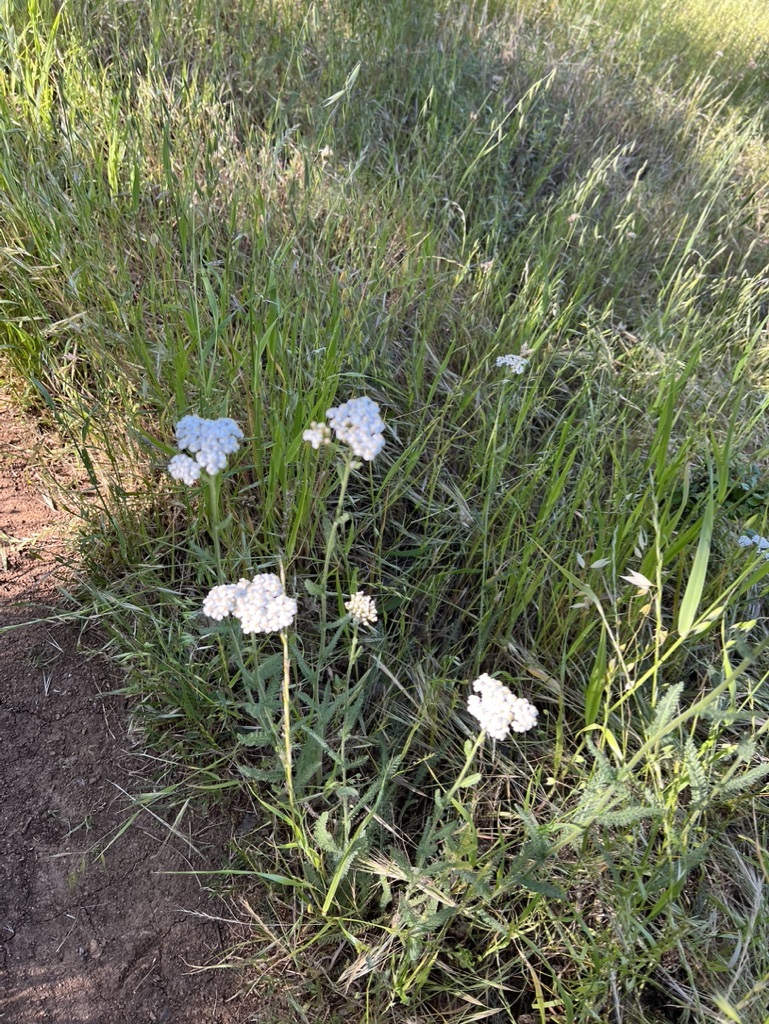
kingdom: Plantae
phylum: Tracheophyta
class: Magnoliopsida
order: Asterales
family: Asteraceae
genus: Achillea
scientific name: Achillea millefolium
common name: Yarrow
